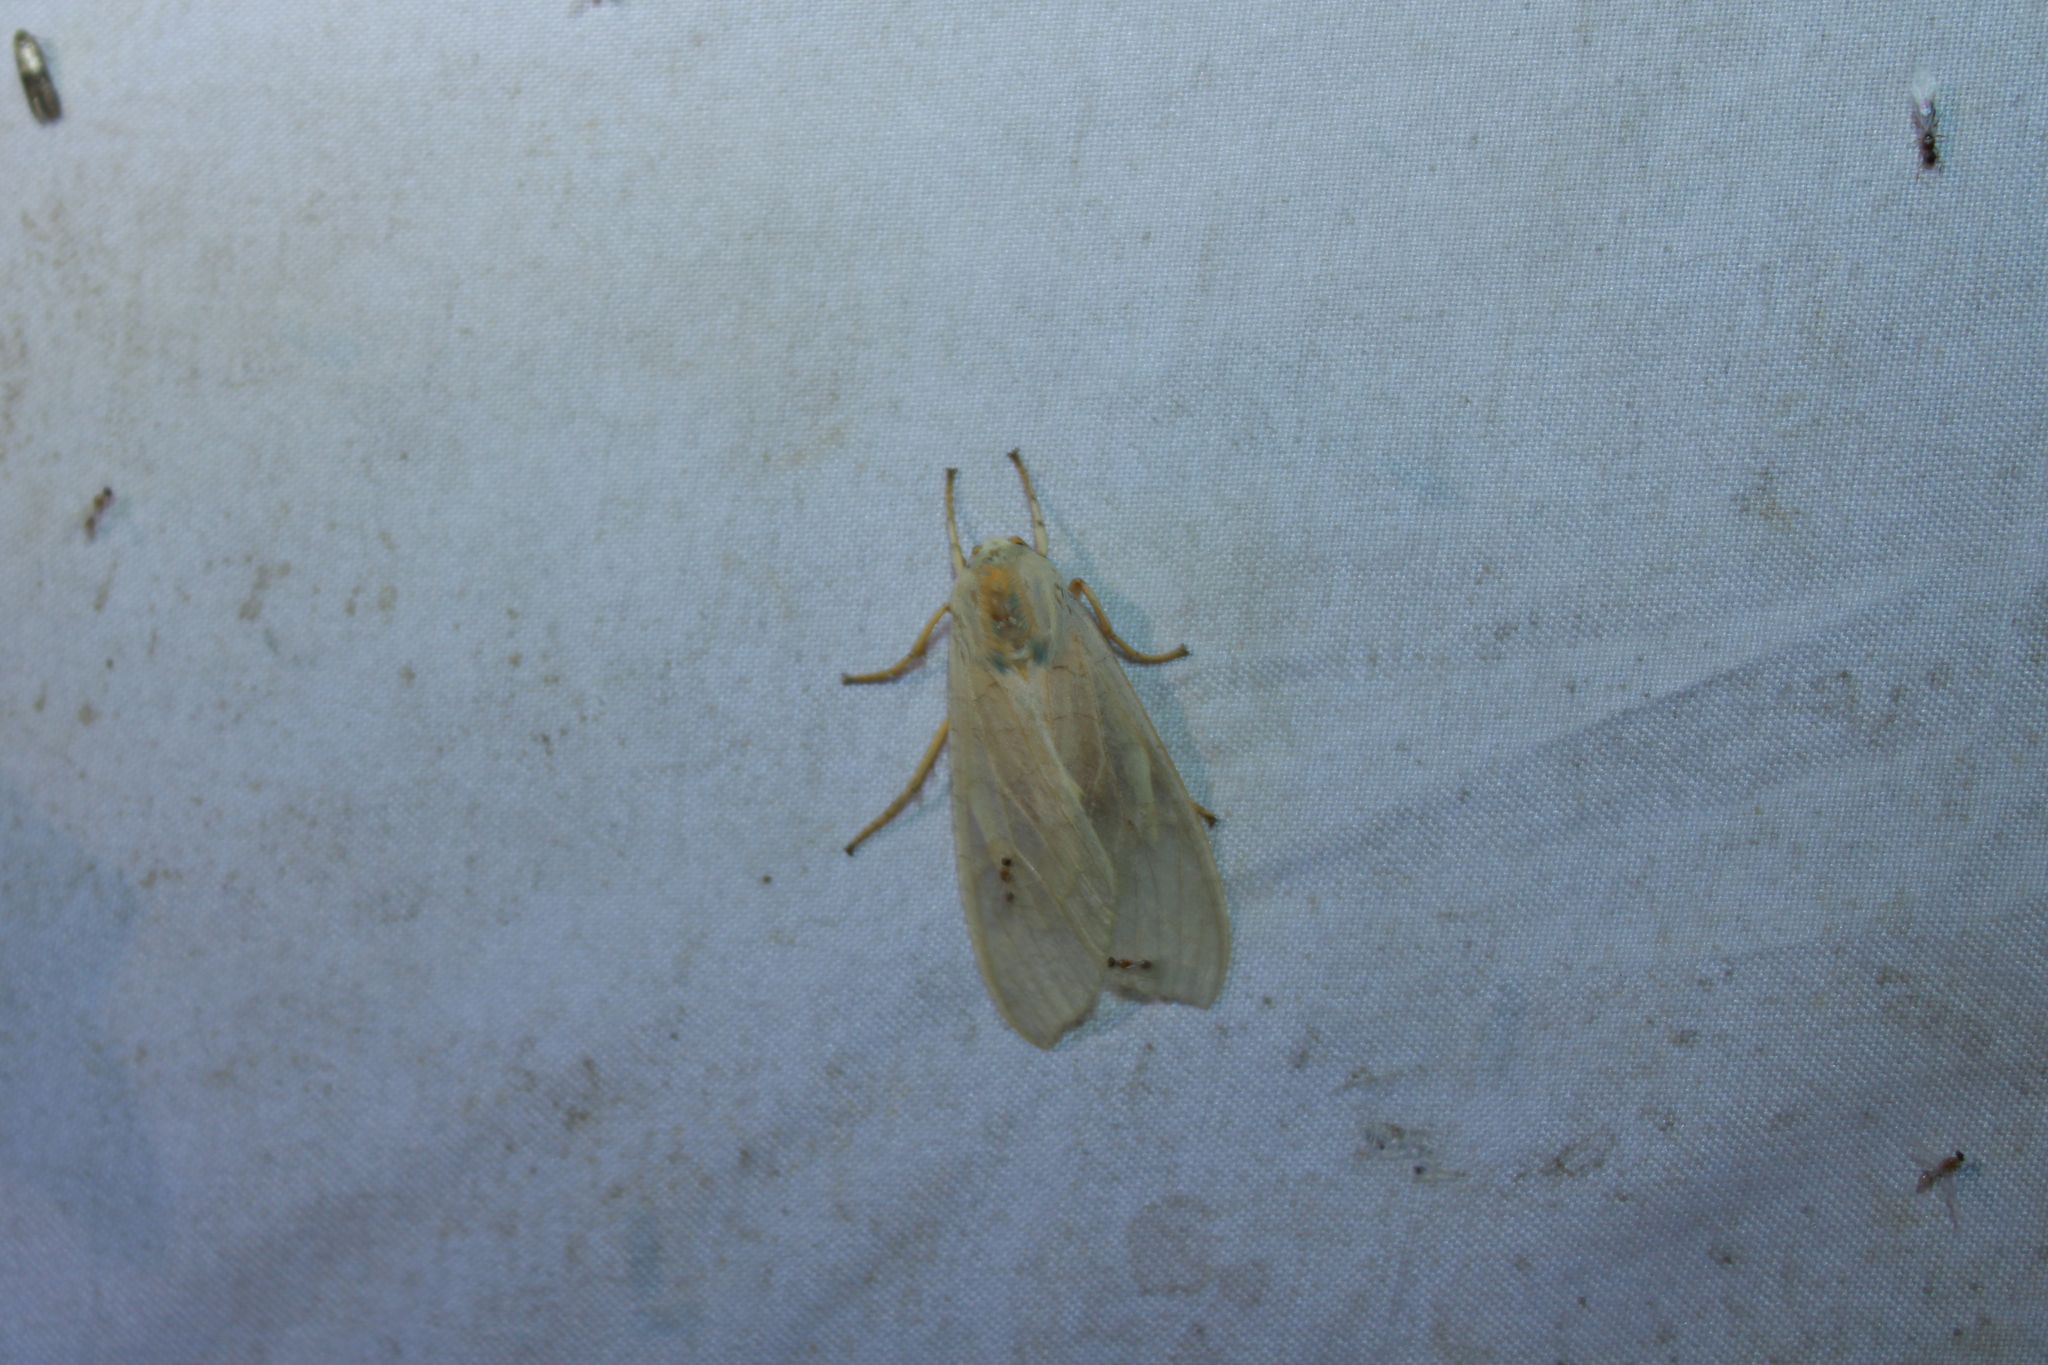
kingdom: Animalia
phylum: Arthropoda
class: Insecta
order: Lepidoptera
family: Erebidae
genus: Halysidota
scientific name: Halysidota
